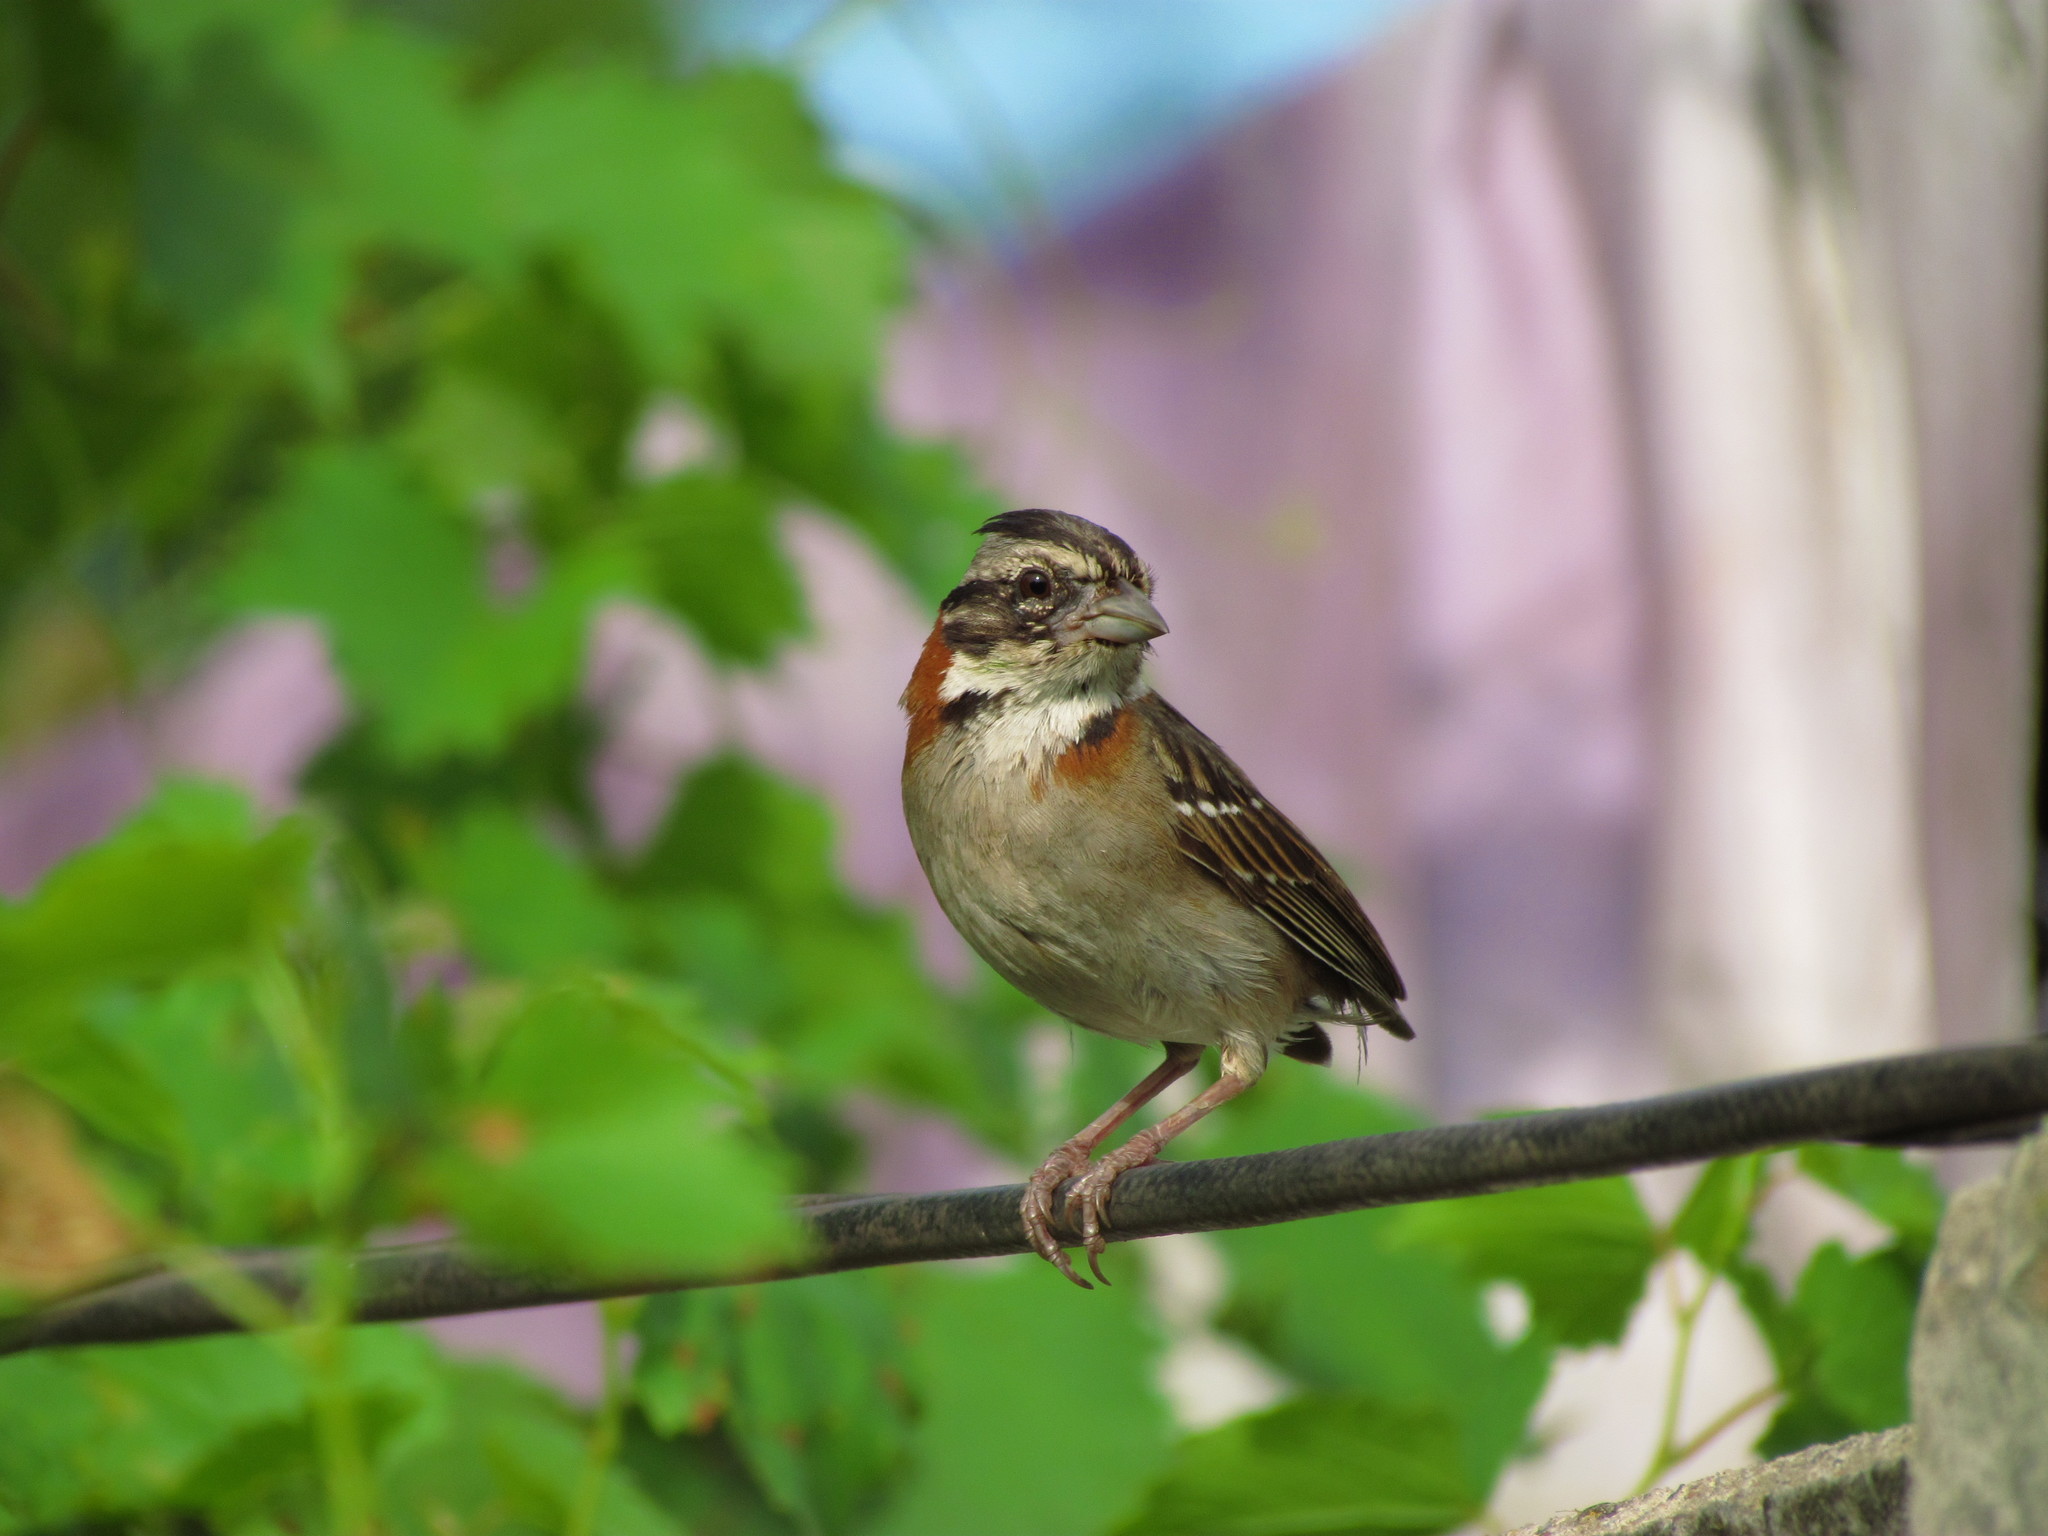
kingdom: Animalia
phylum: Chordata
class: Aves
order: Passeriformes
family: Passerellidae
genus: Zonotrichia
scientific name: Zonotrichia capensis
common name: Rufous-collared sparrow
